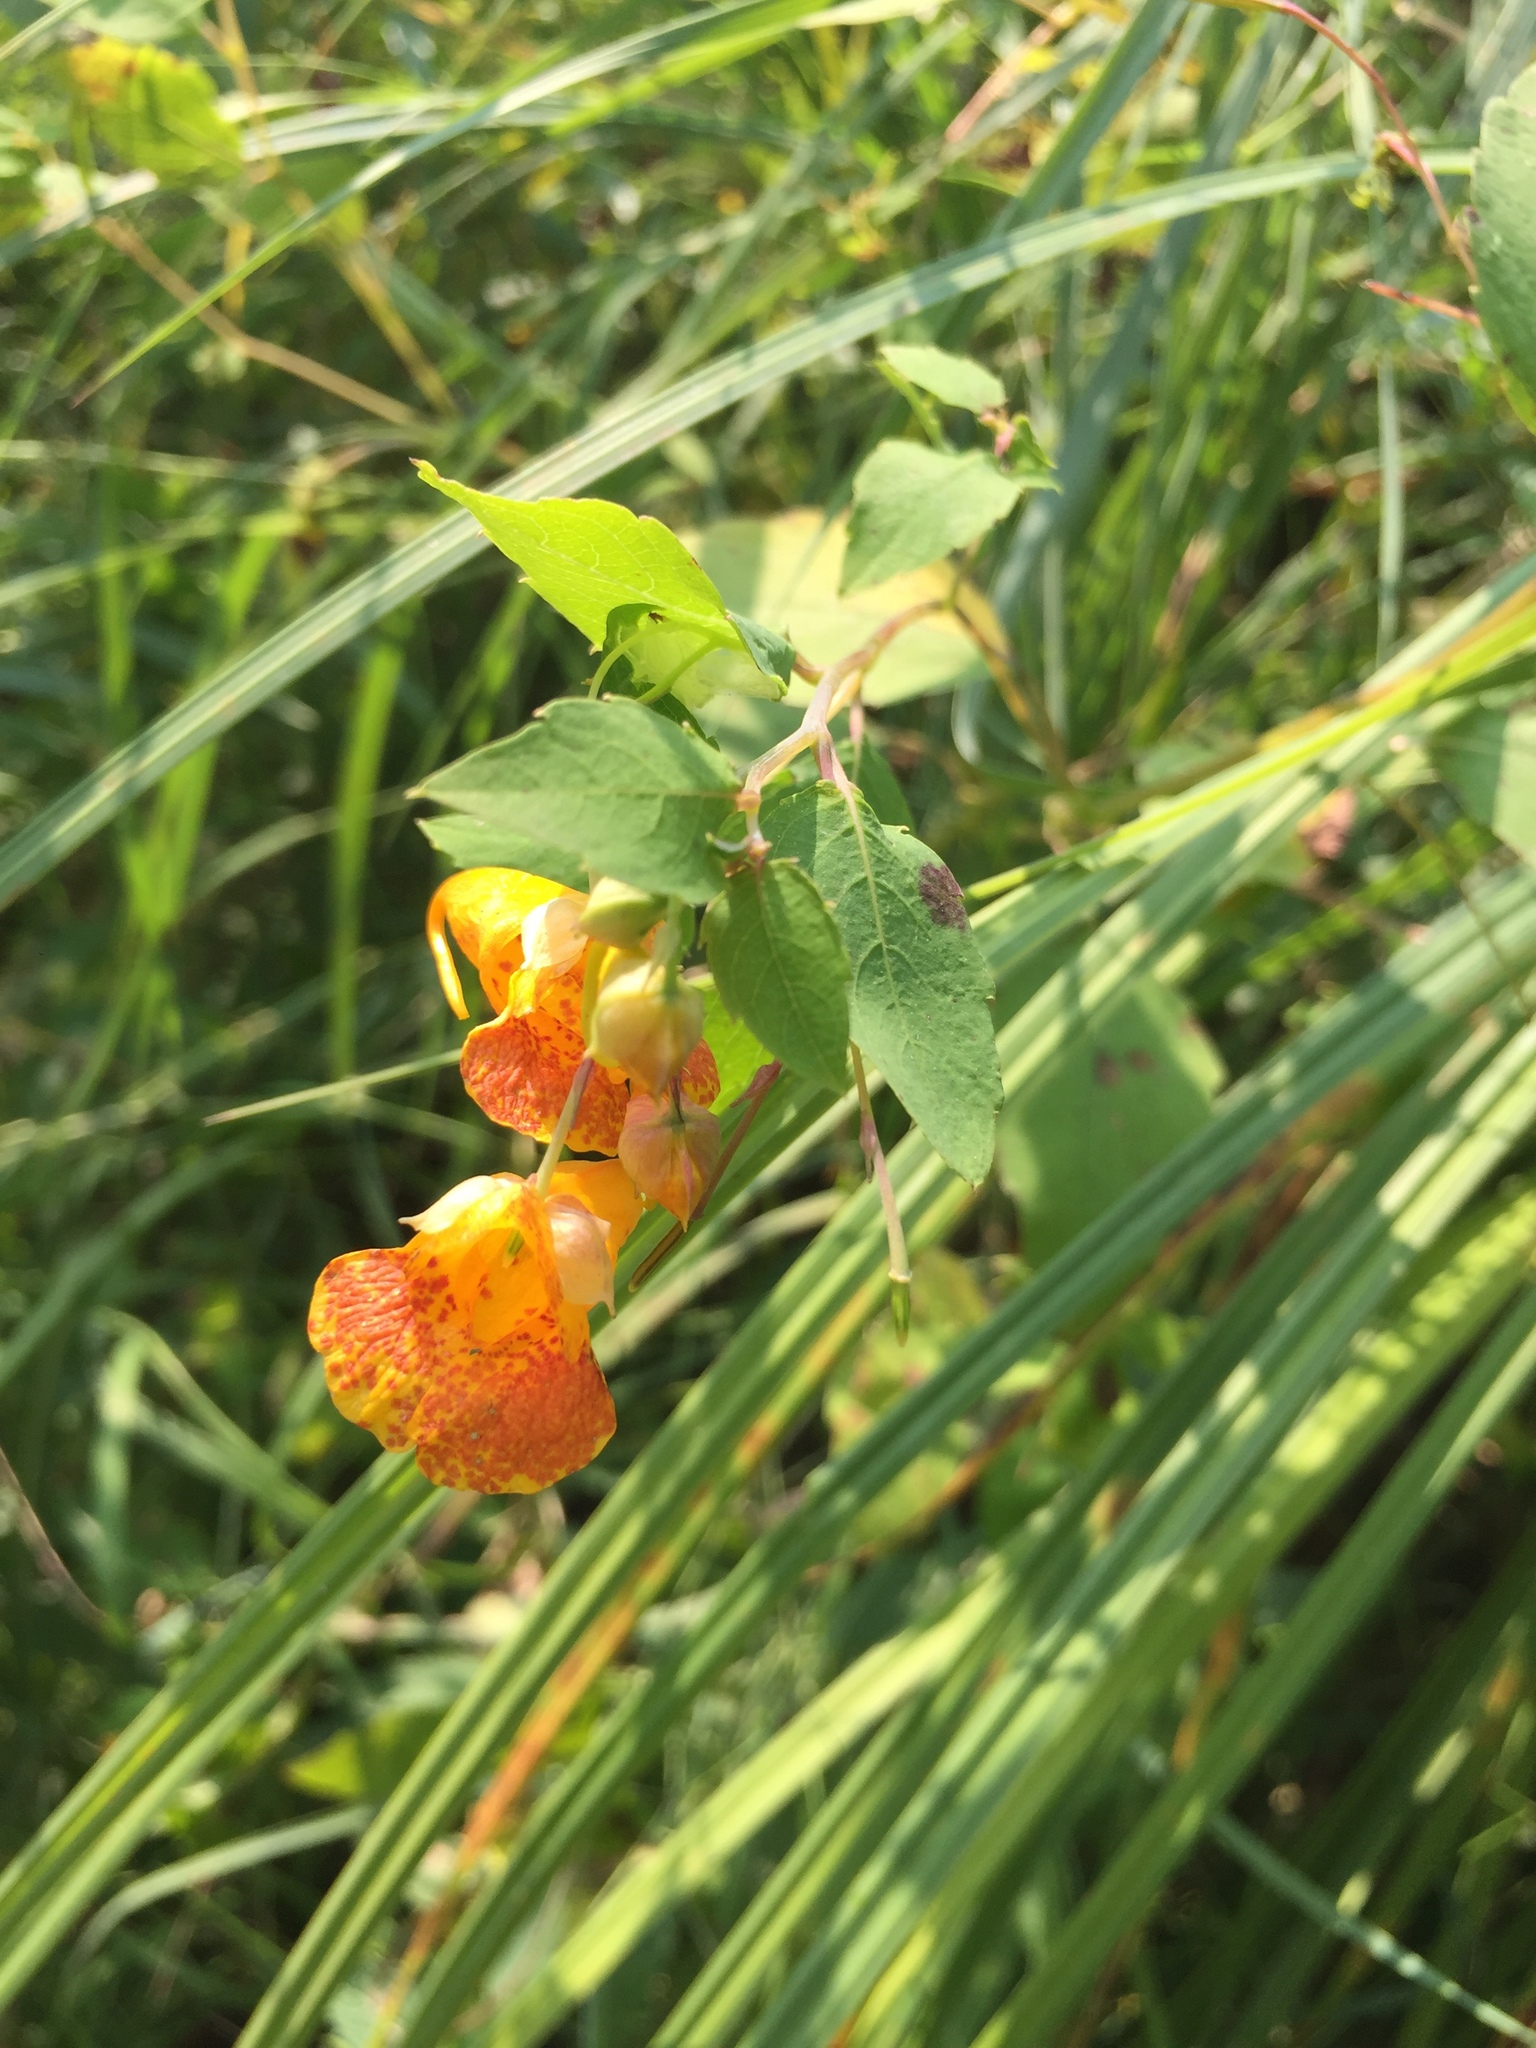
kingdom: Plantae
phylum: Tracheophyta
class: Magnoliopsida
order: Ericales
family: Balsaminaceae
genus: Impatiens
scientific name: Impatiens capensis
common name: Orange balsam
